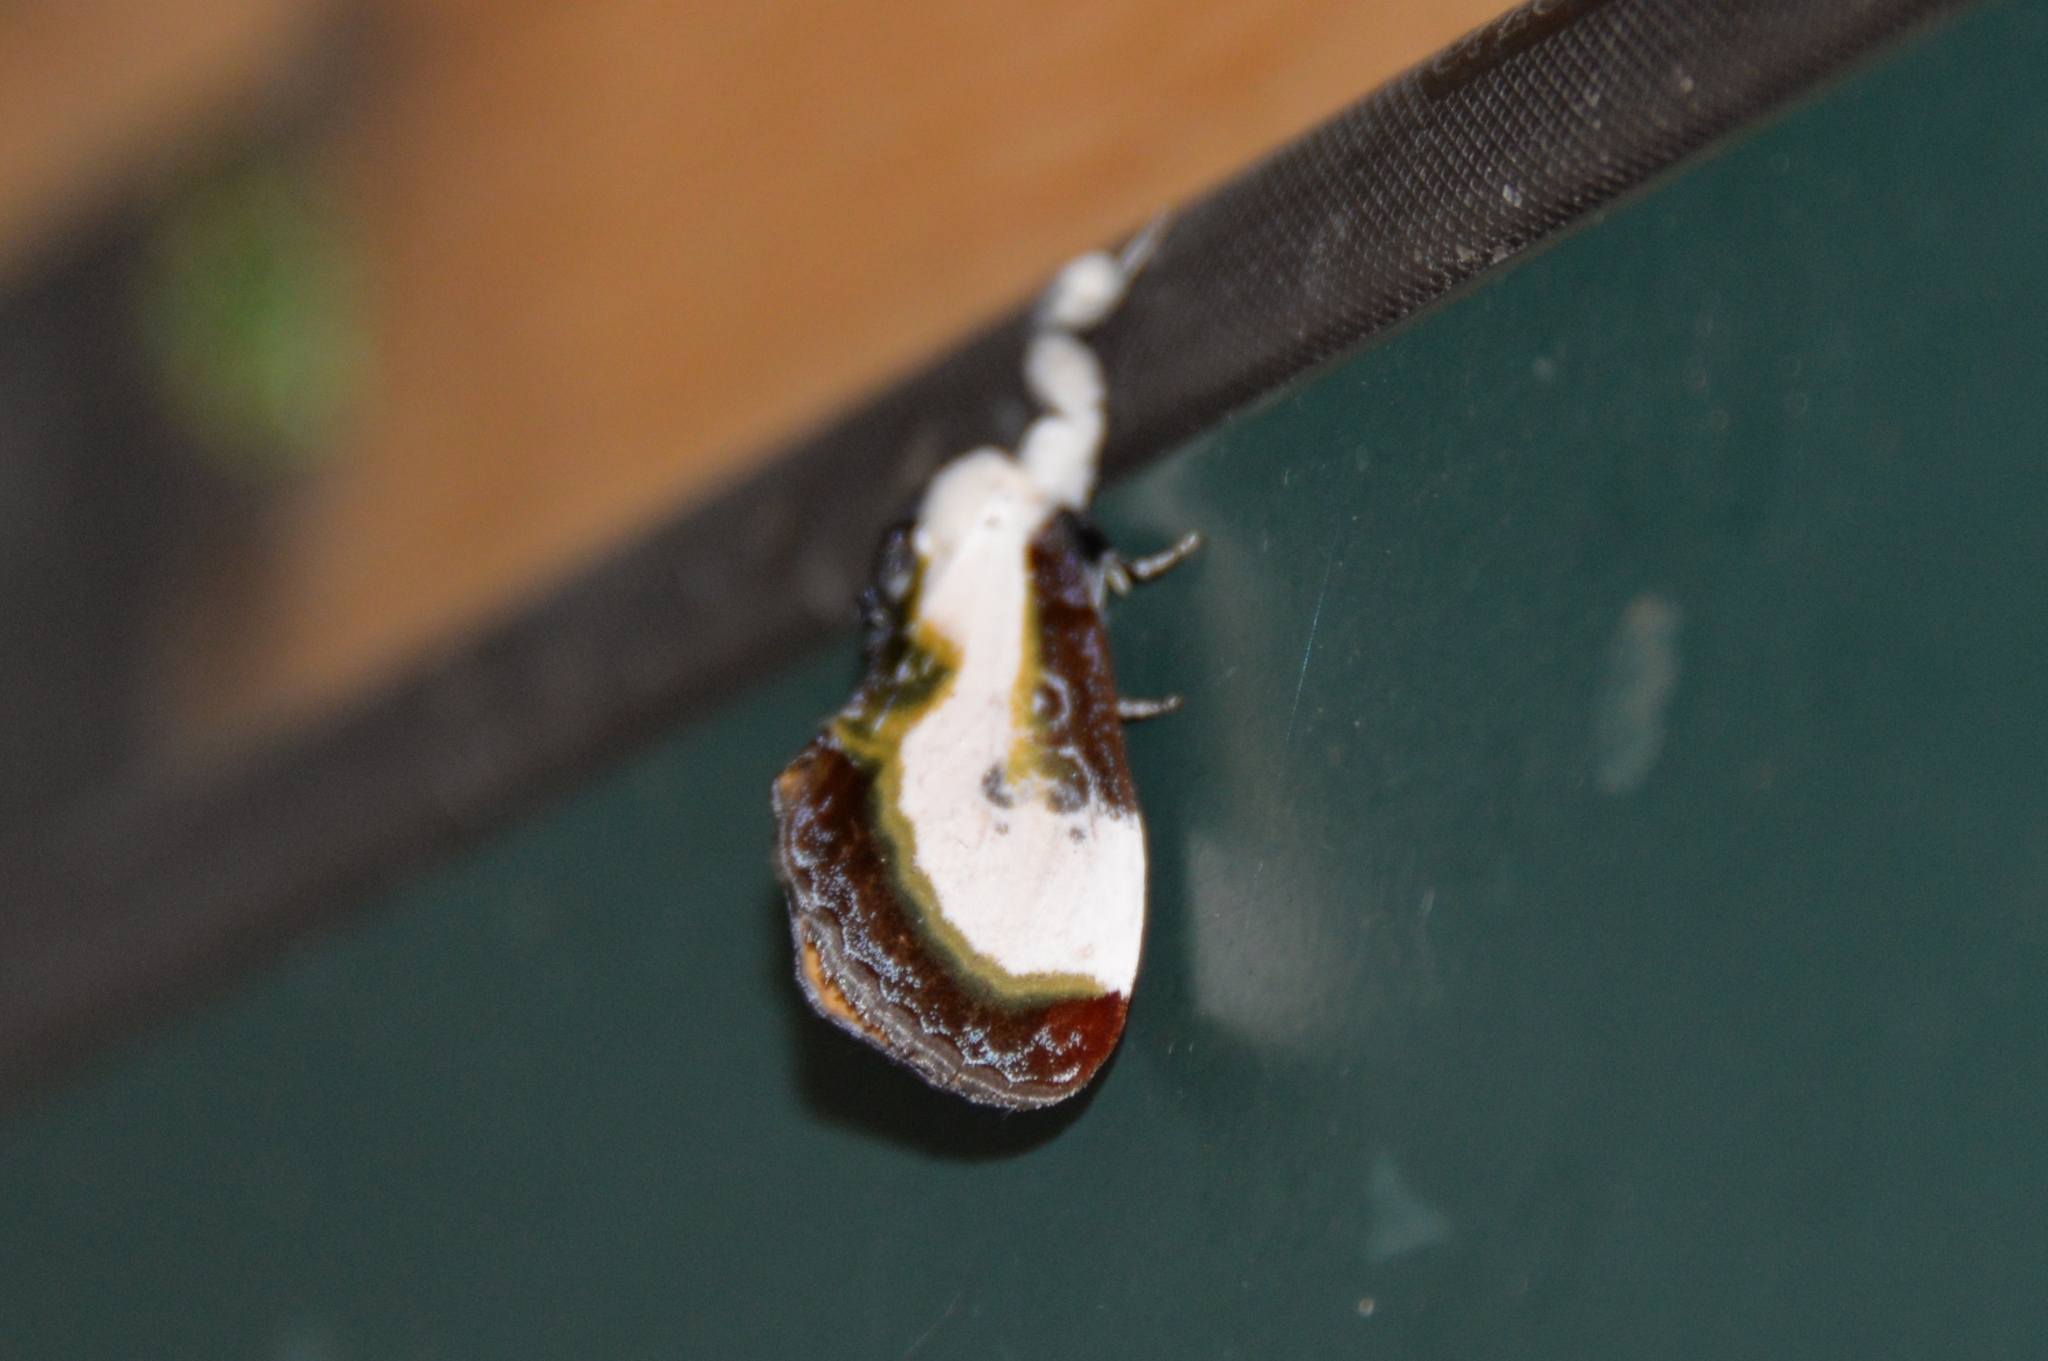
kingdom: Animalia
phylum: Arthropoda
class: Insecta
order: Lepidoptera
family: Noctuidae
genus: Eudryas
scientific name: Eudryas grata
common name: Beautiful wood-nymph
